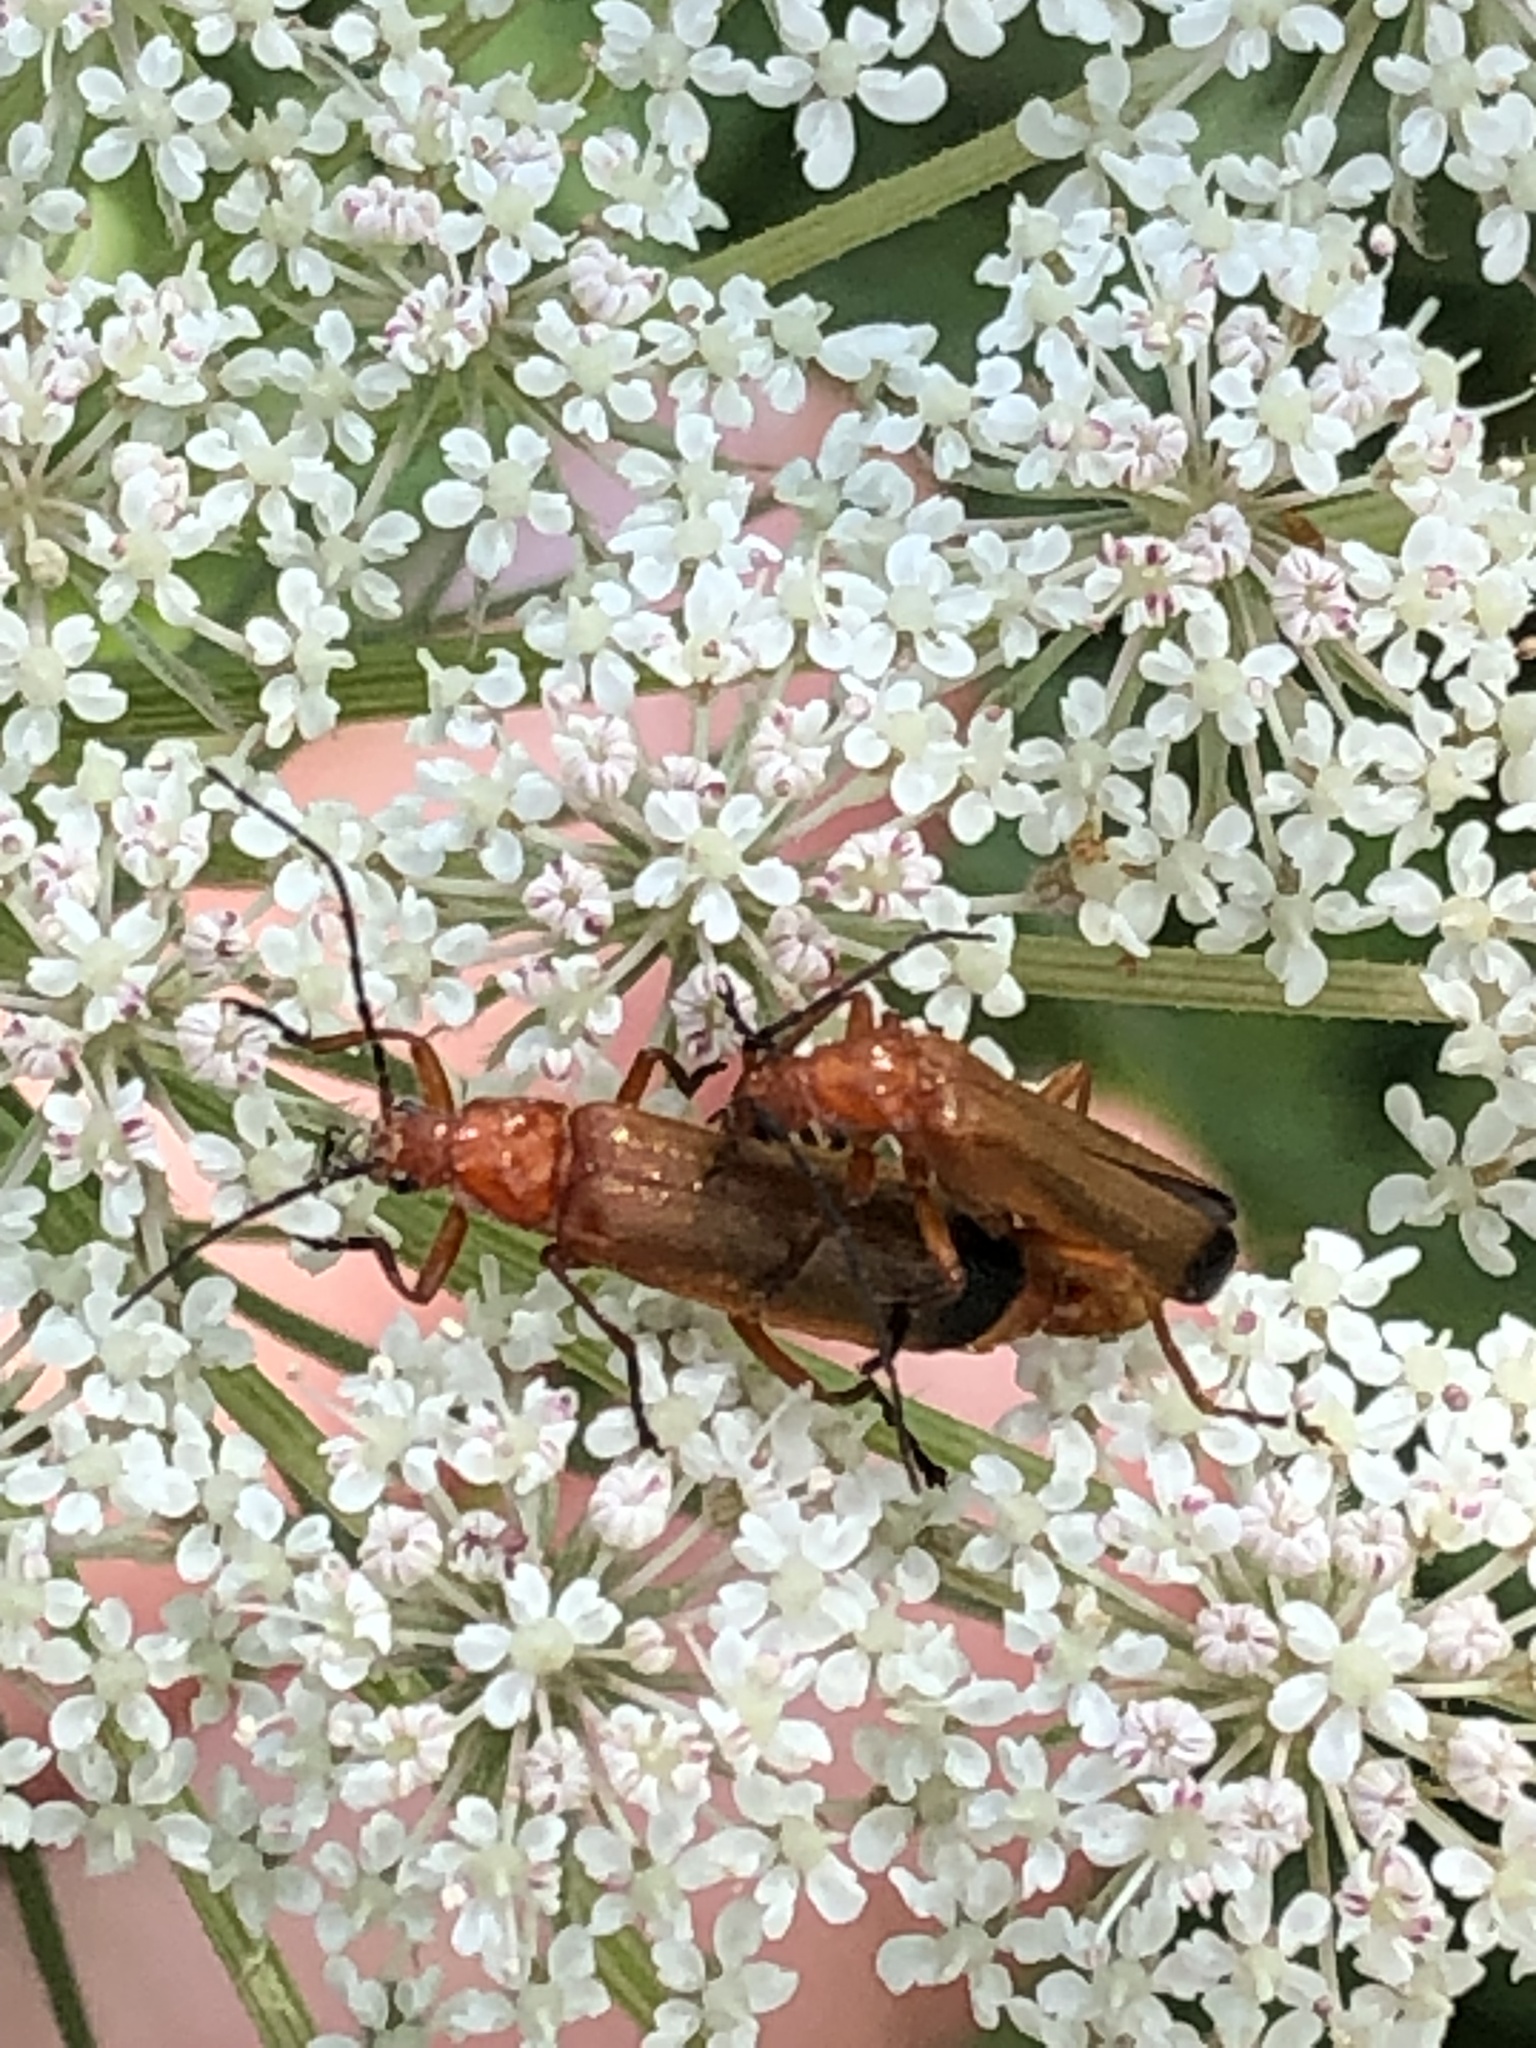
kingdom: Animalia
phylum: Arthropoda
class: Insecta
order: Coleoptera
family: Cantharidae
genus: Rhagonycha
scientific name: Rhagonycha fulva
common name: Common red soldier beetle
